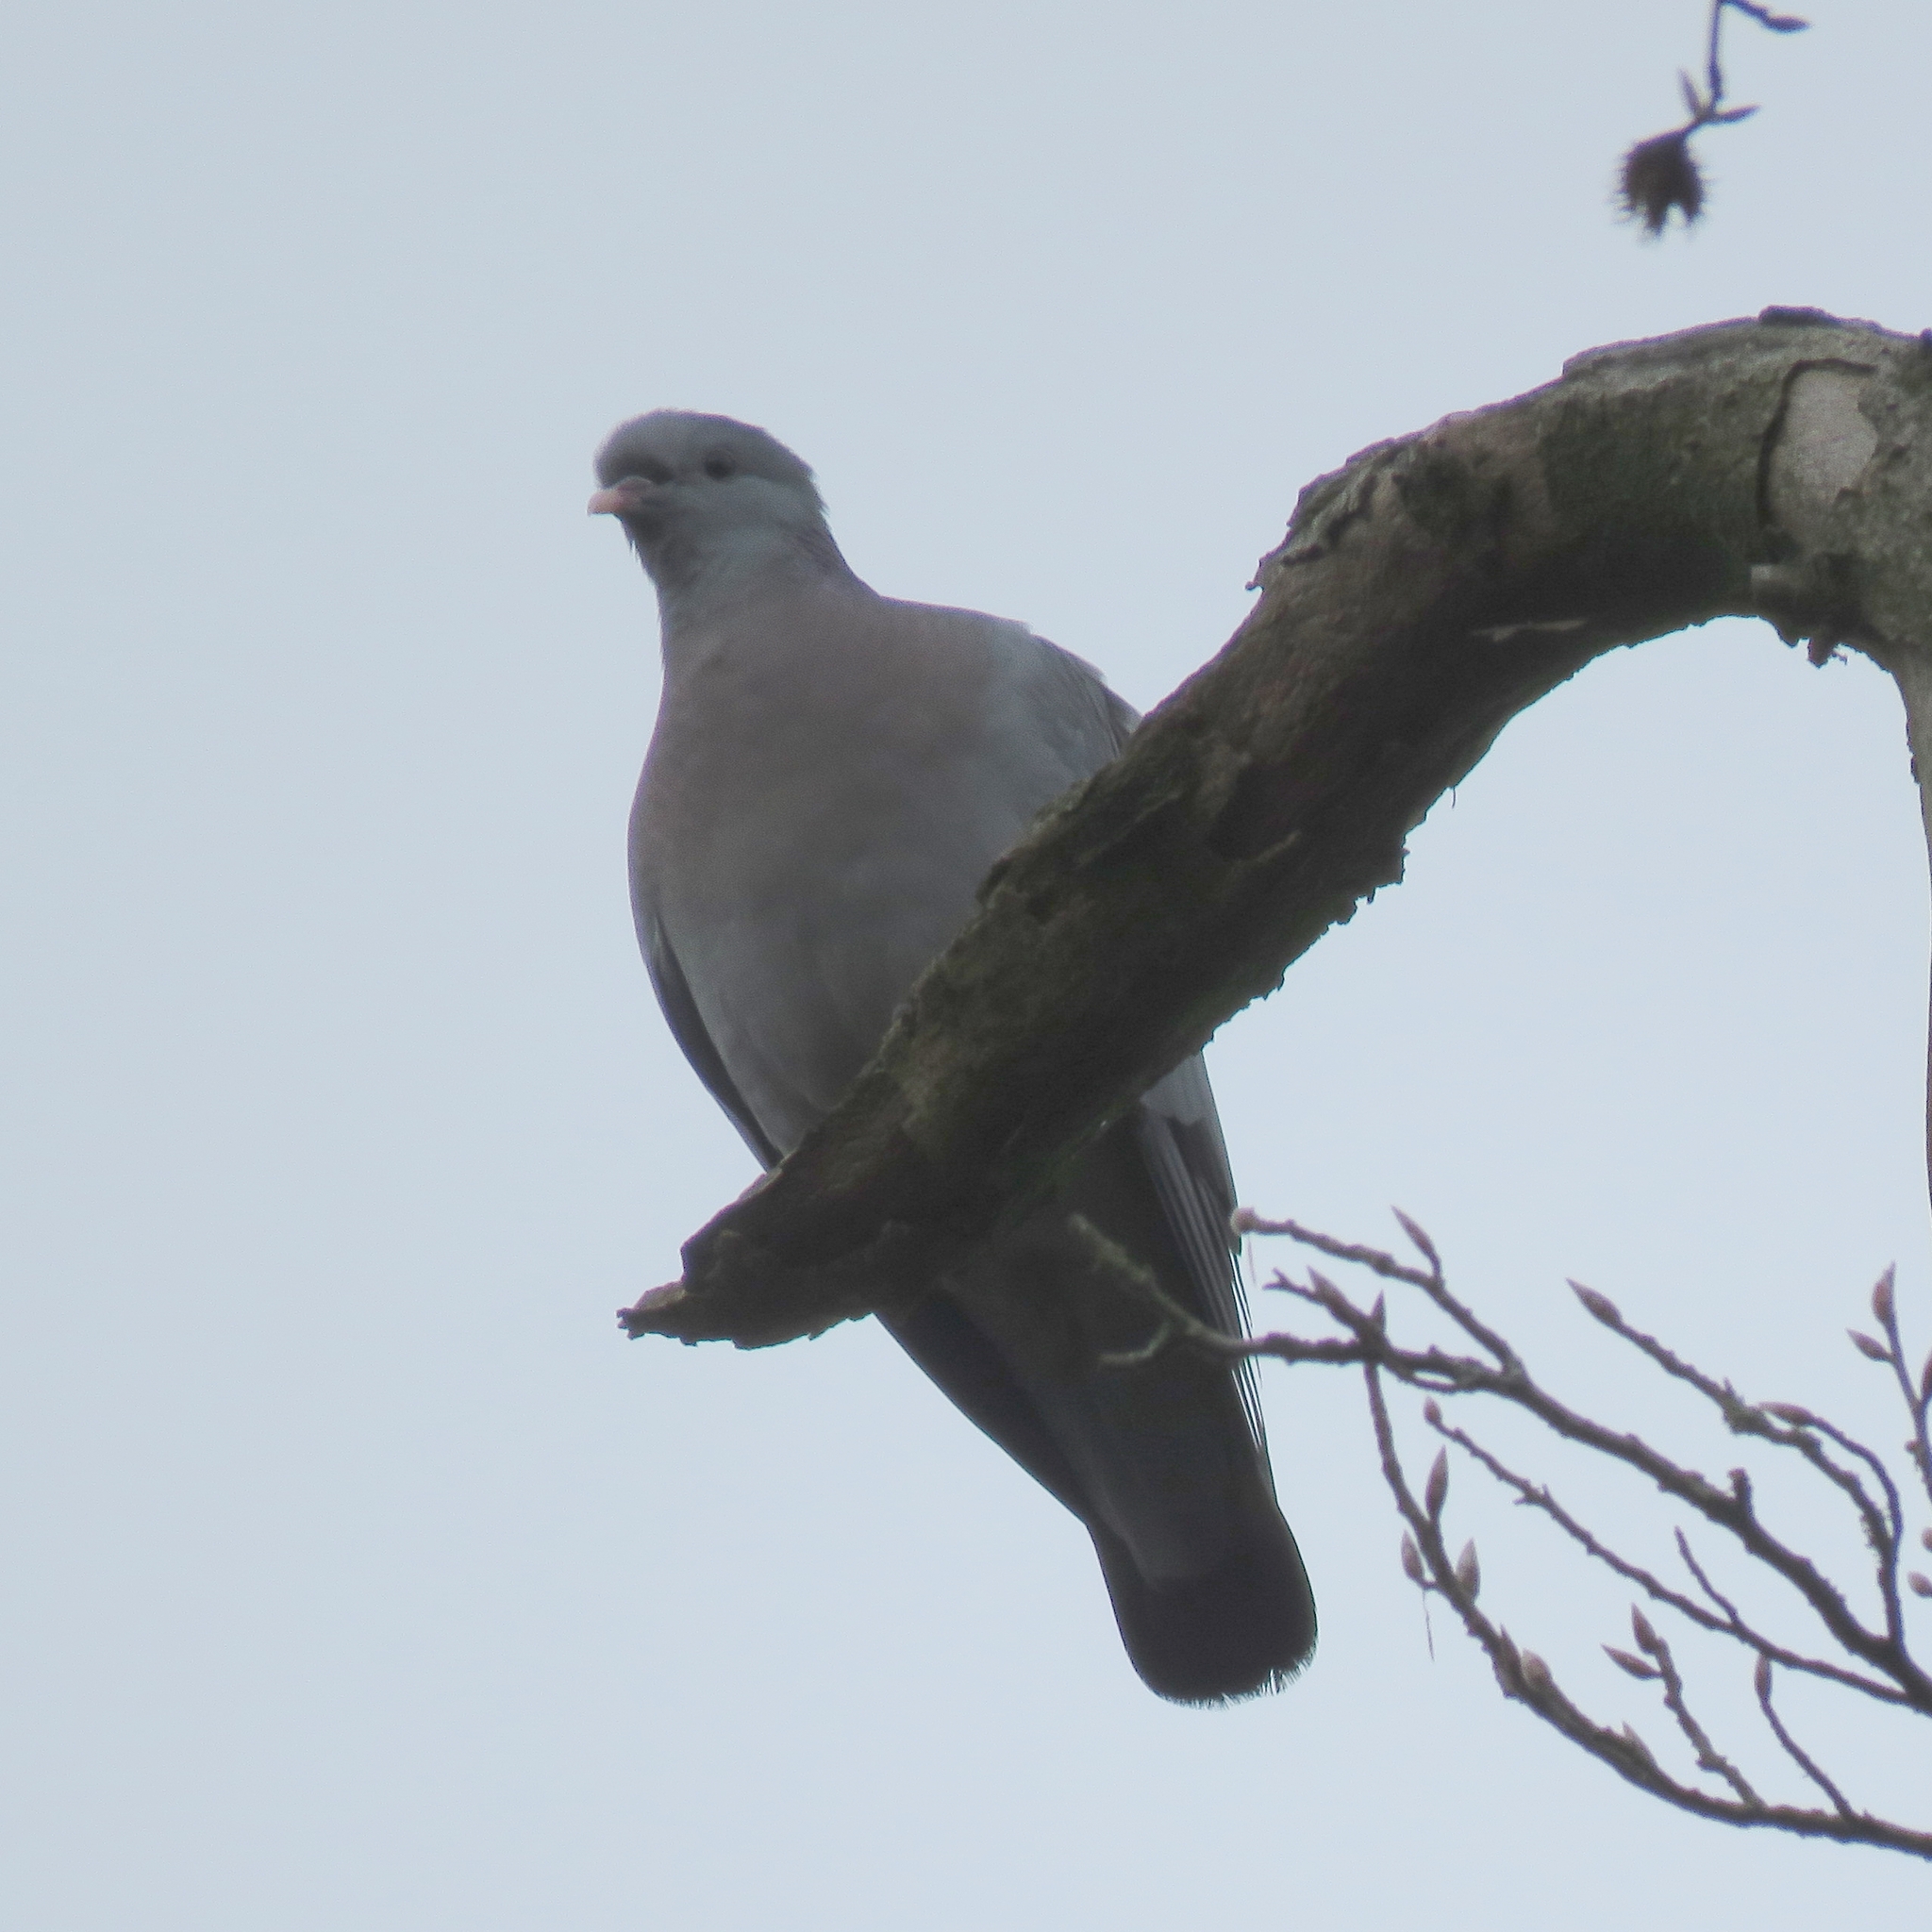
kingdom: Animalia
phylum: Chordata
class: Aves
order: Columbiformes
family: Columbidae
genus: Columba
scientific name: Columba oenas
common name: Stock dove
